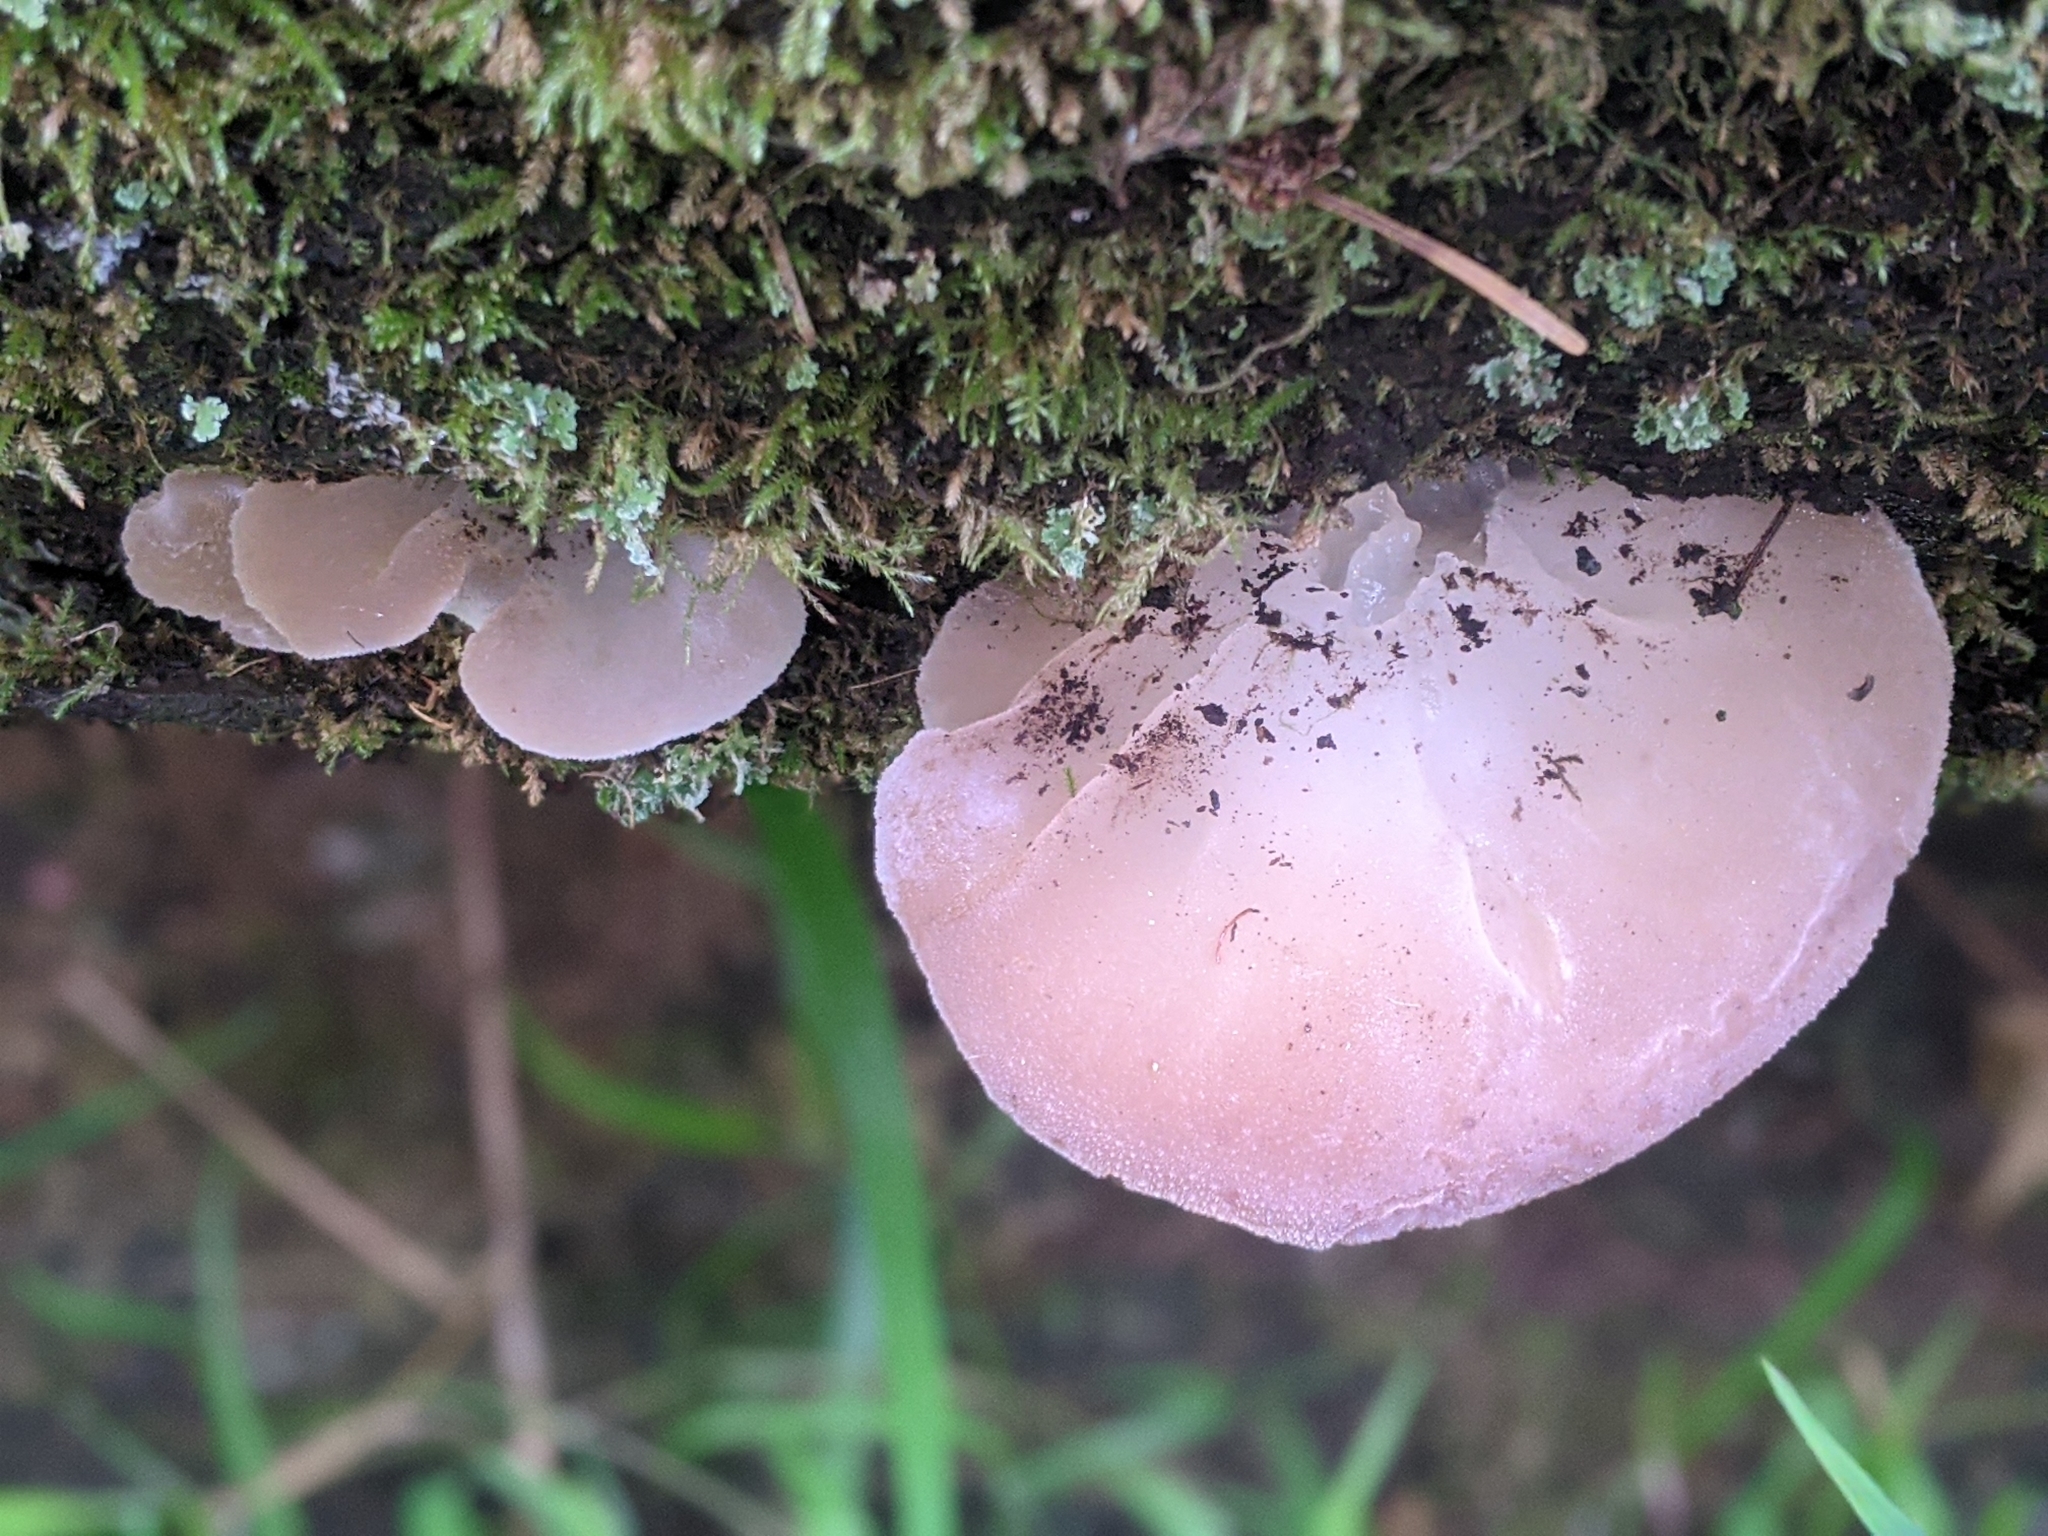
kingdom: Fungi
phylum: Basidiomycota
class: Agaricomycetes
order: Auriculariales
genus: Pseudohydnum
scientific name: Pseudohydnum gelatinosum
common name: Jelly tongue
